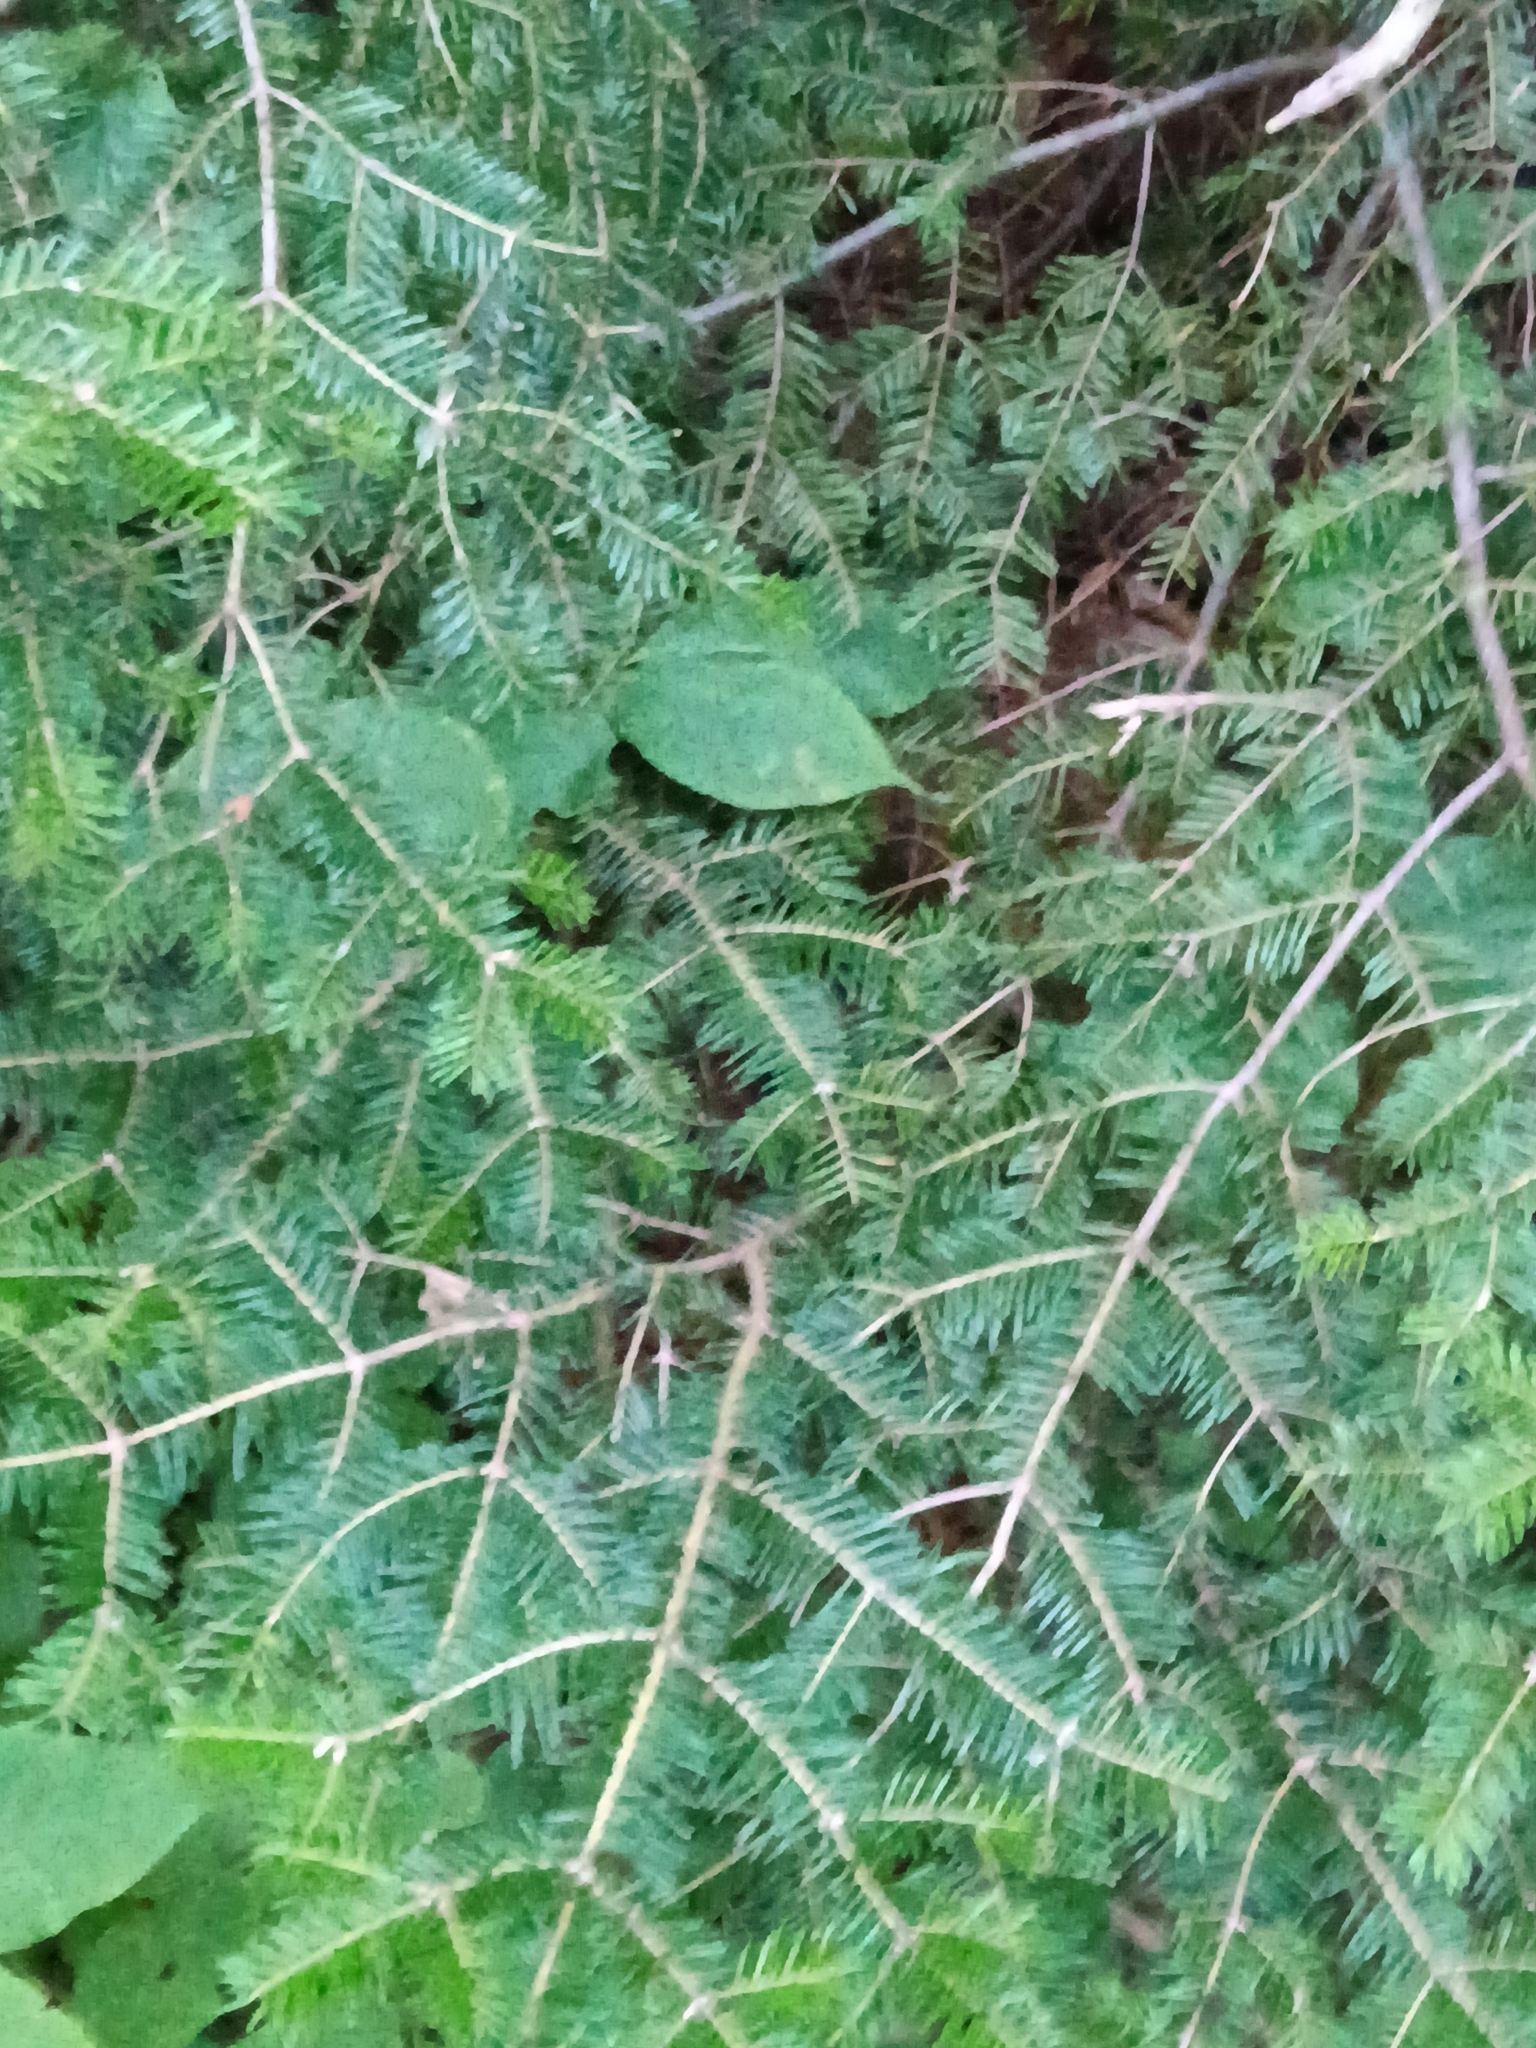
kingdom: Plantae
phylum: Tracheophyta
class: Pinopsida
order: Pinales
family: Pinaceae
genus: Abies
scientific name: Abies balsamea
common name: Balsam fir
